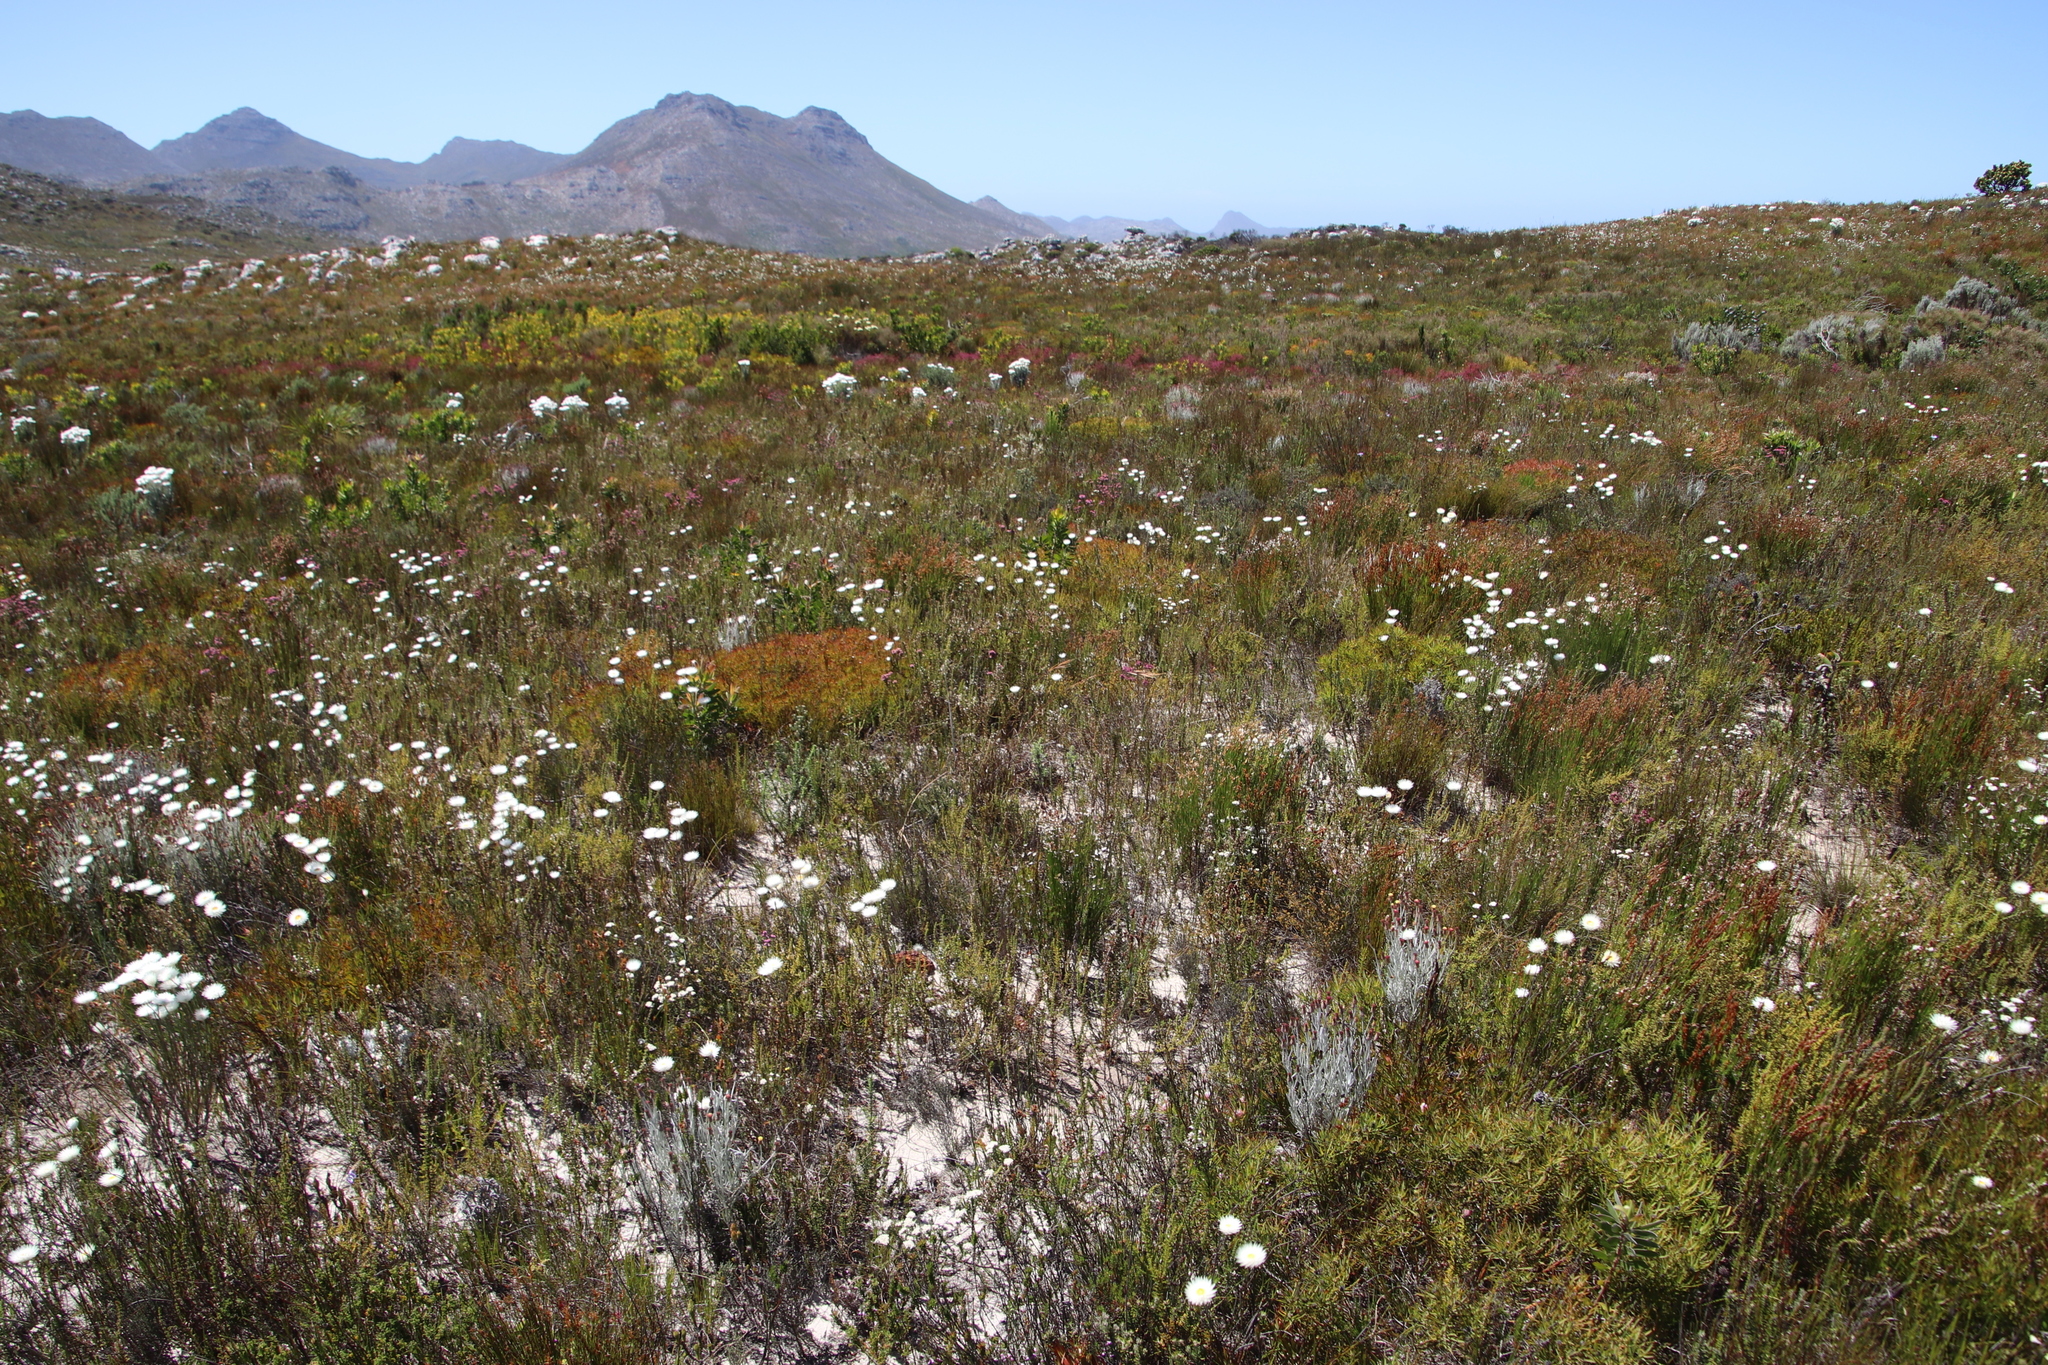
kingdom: Plantae
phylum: Tracheophyta
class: Magnoliopsida
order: Proteales
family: Proteaceae
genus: Leucadendron
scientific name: Leucadendron salignum
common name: Common sunshine conebush
